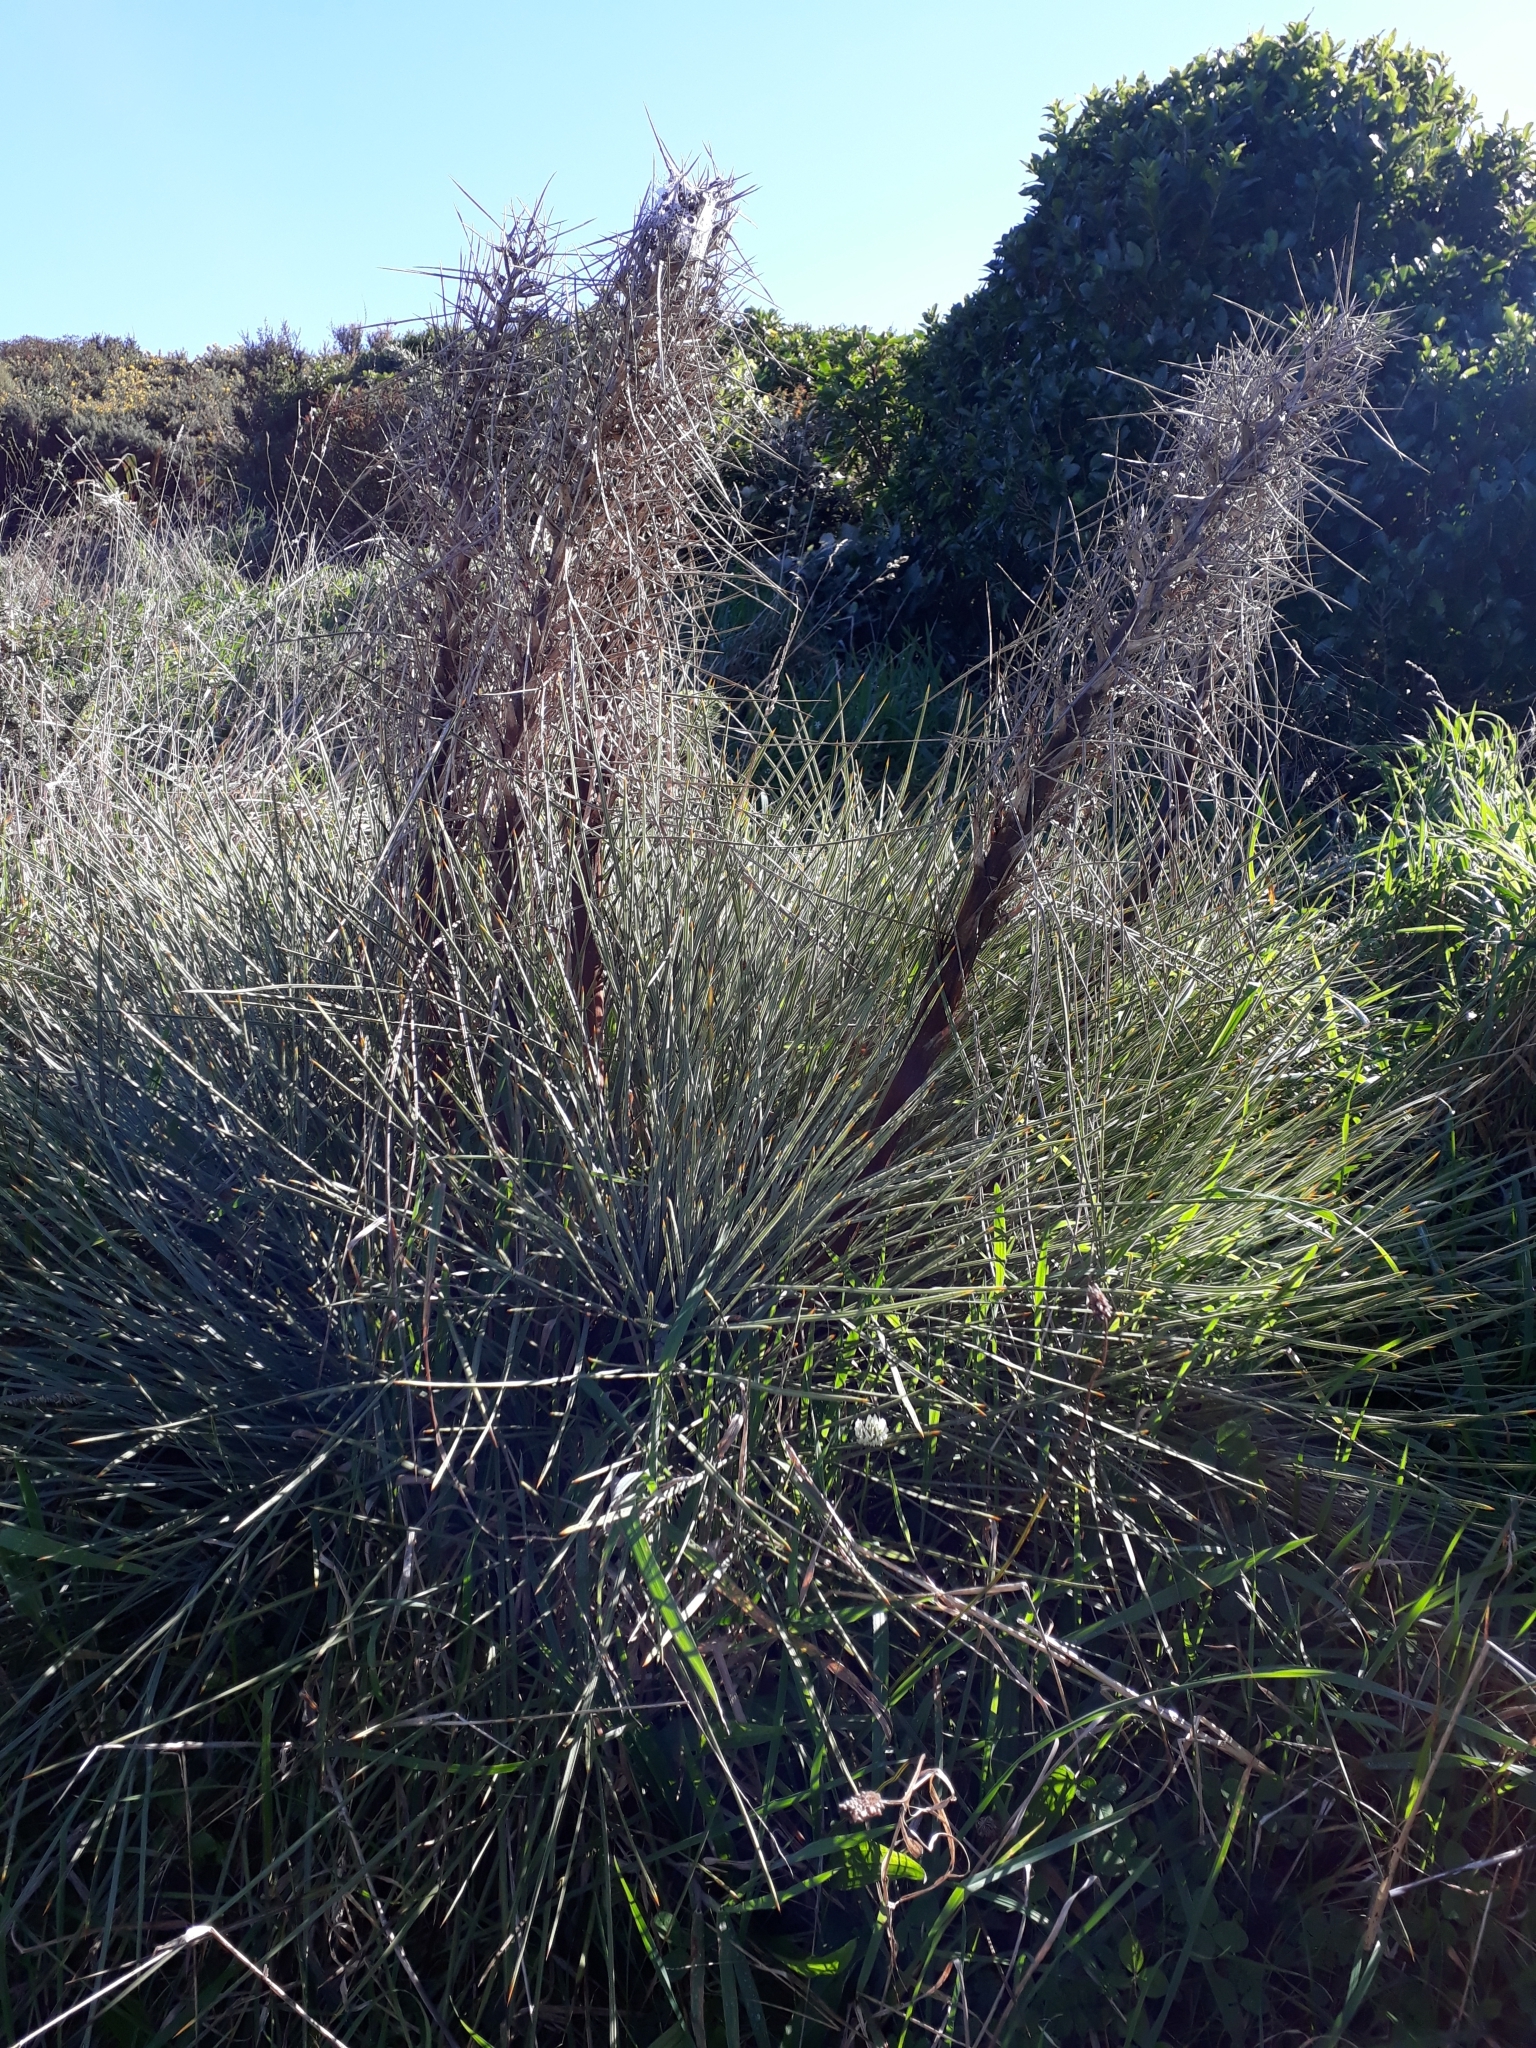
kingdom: Plantae
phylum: Tracheophyta
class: Magnoliopsida
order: Apiales
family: Apiaceae
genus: Aciphylla
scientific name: Aciphylla squarrosa
